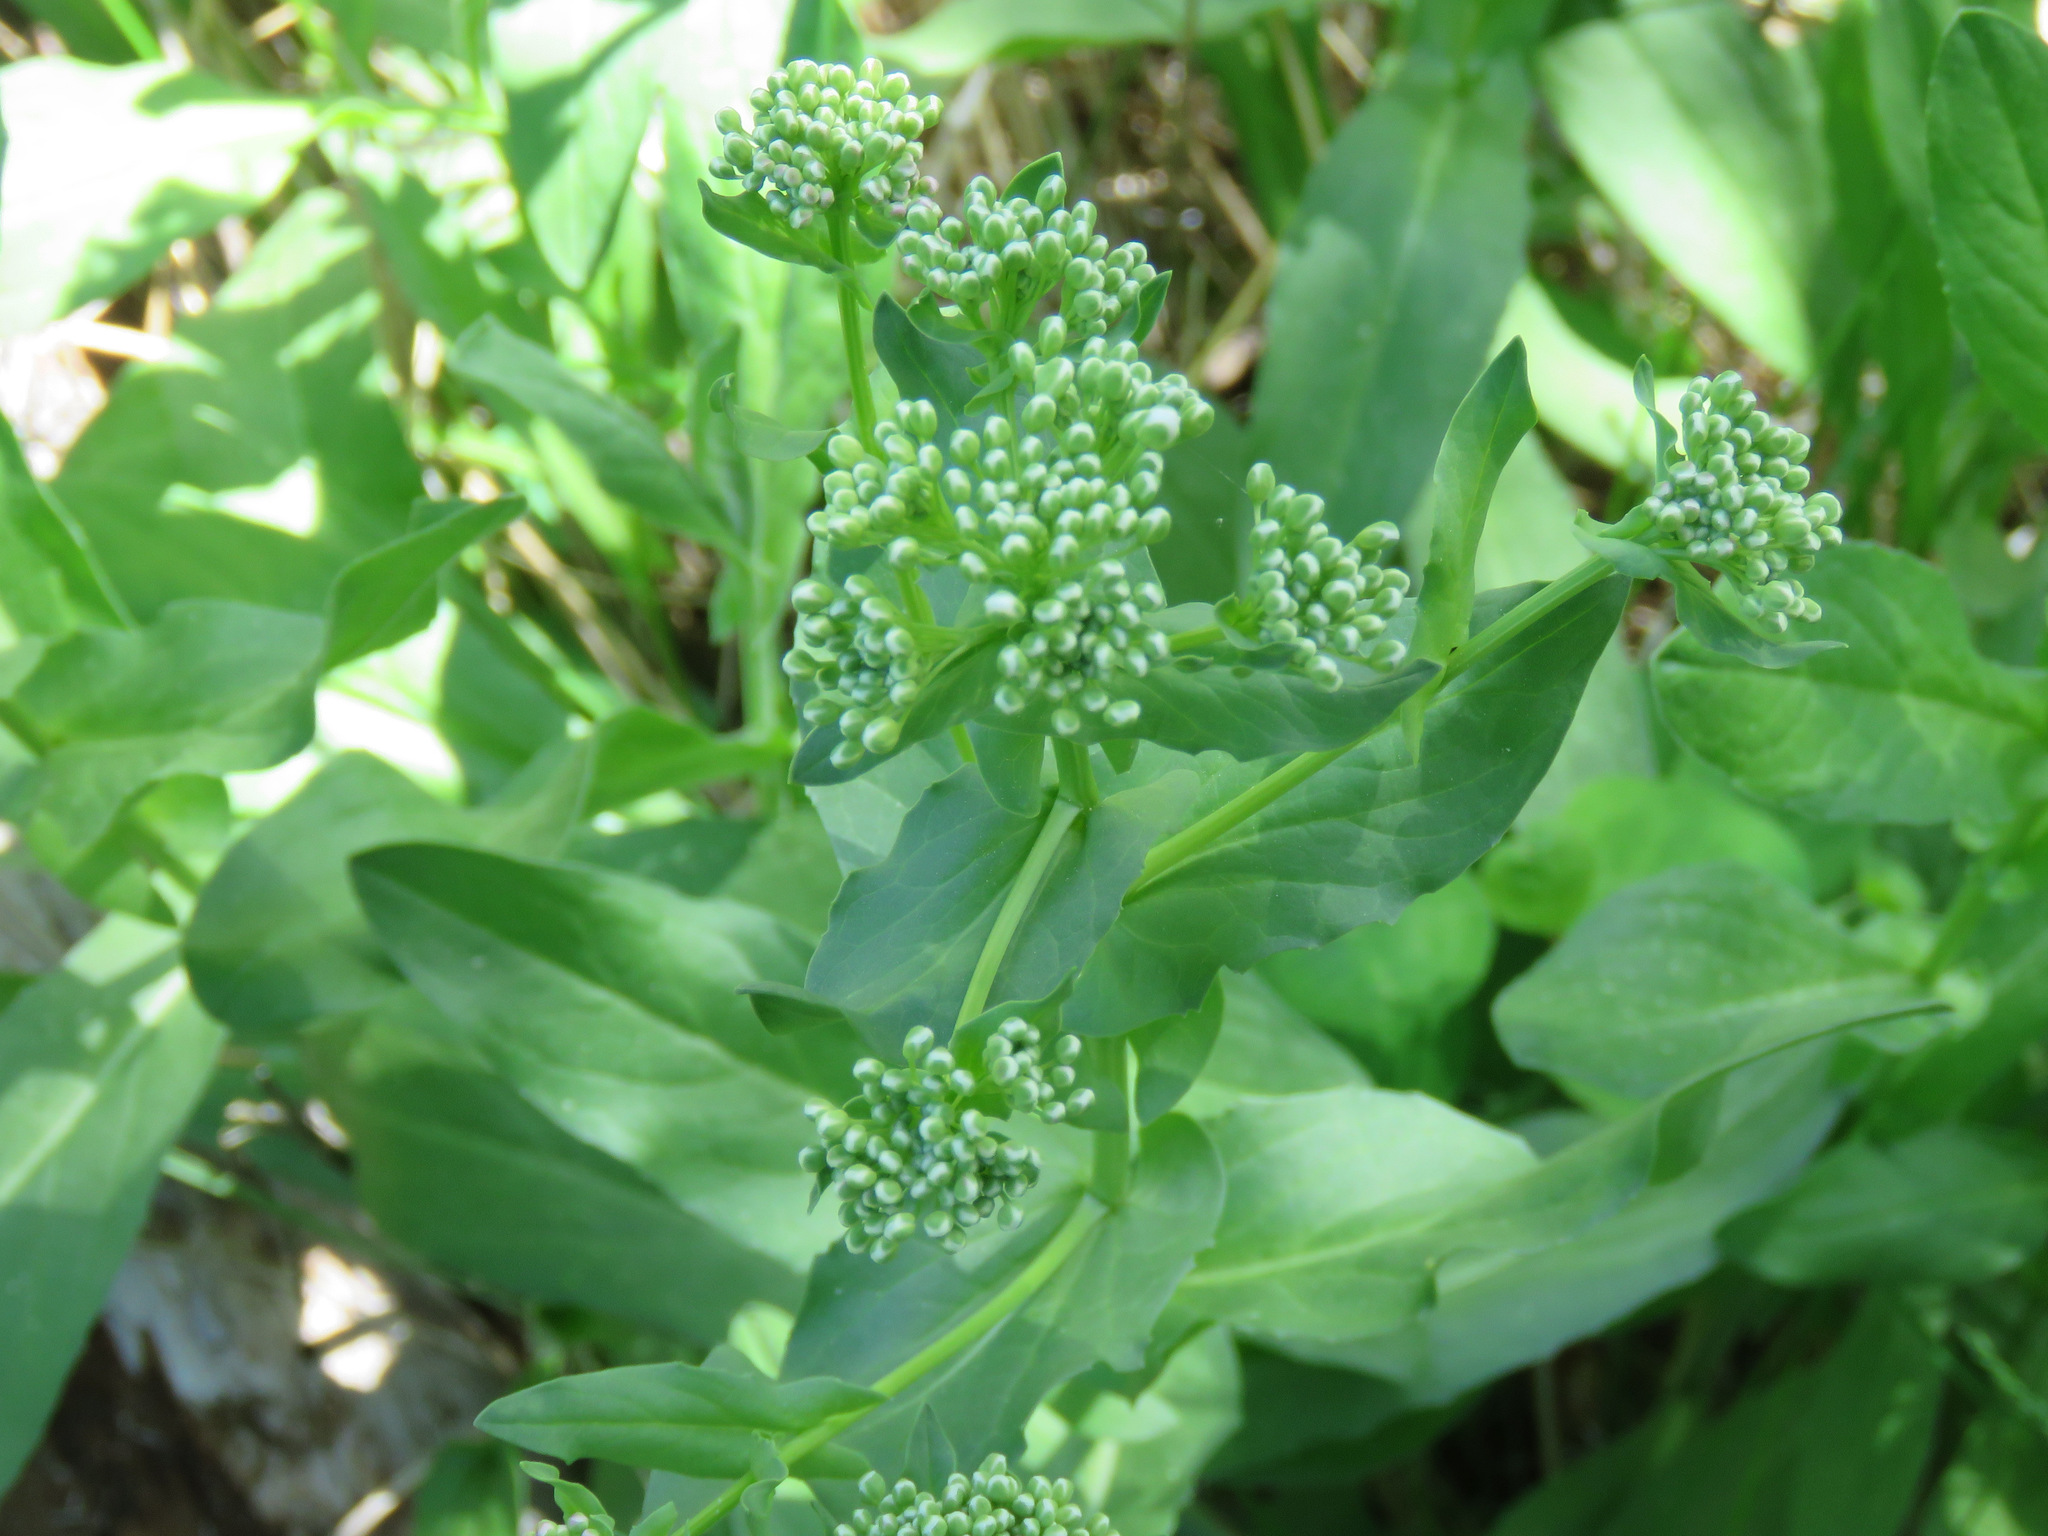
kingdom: Plantae
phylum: Tracheophyta
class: Magnoliopsida
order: Brassicales
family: Brassicaceae
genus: Lepidium
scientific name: Lepidium draba
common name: Hoary cress
